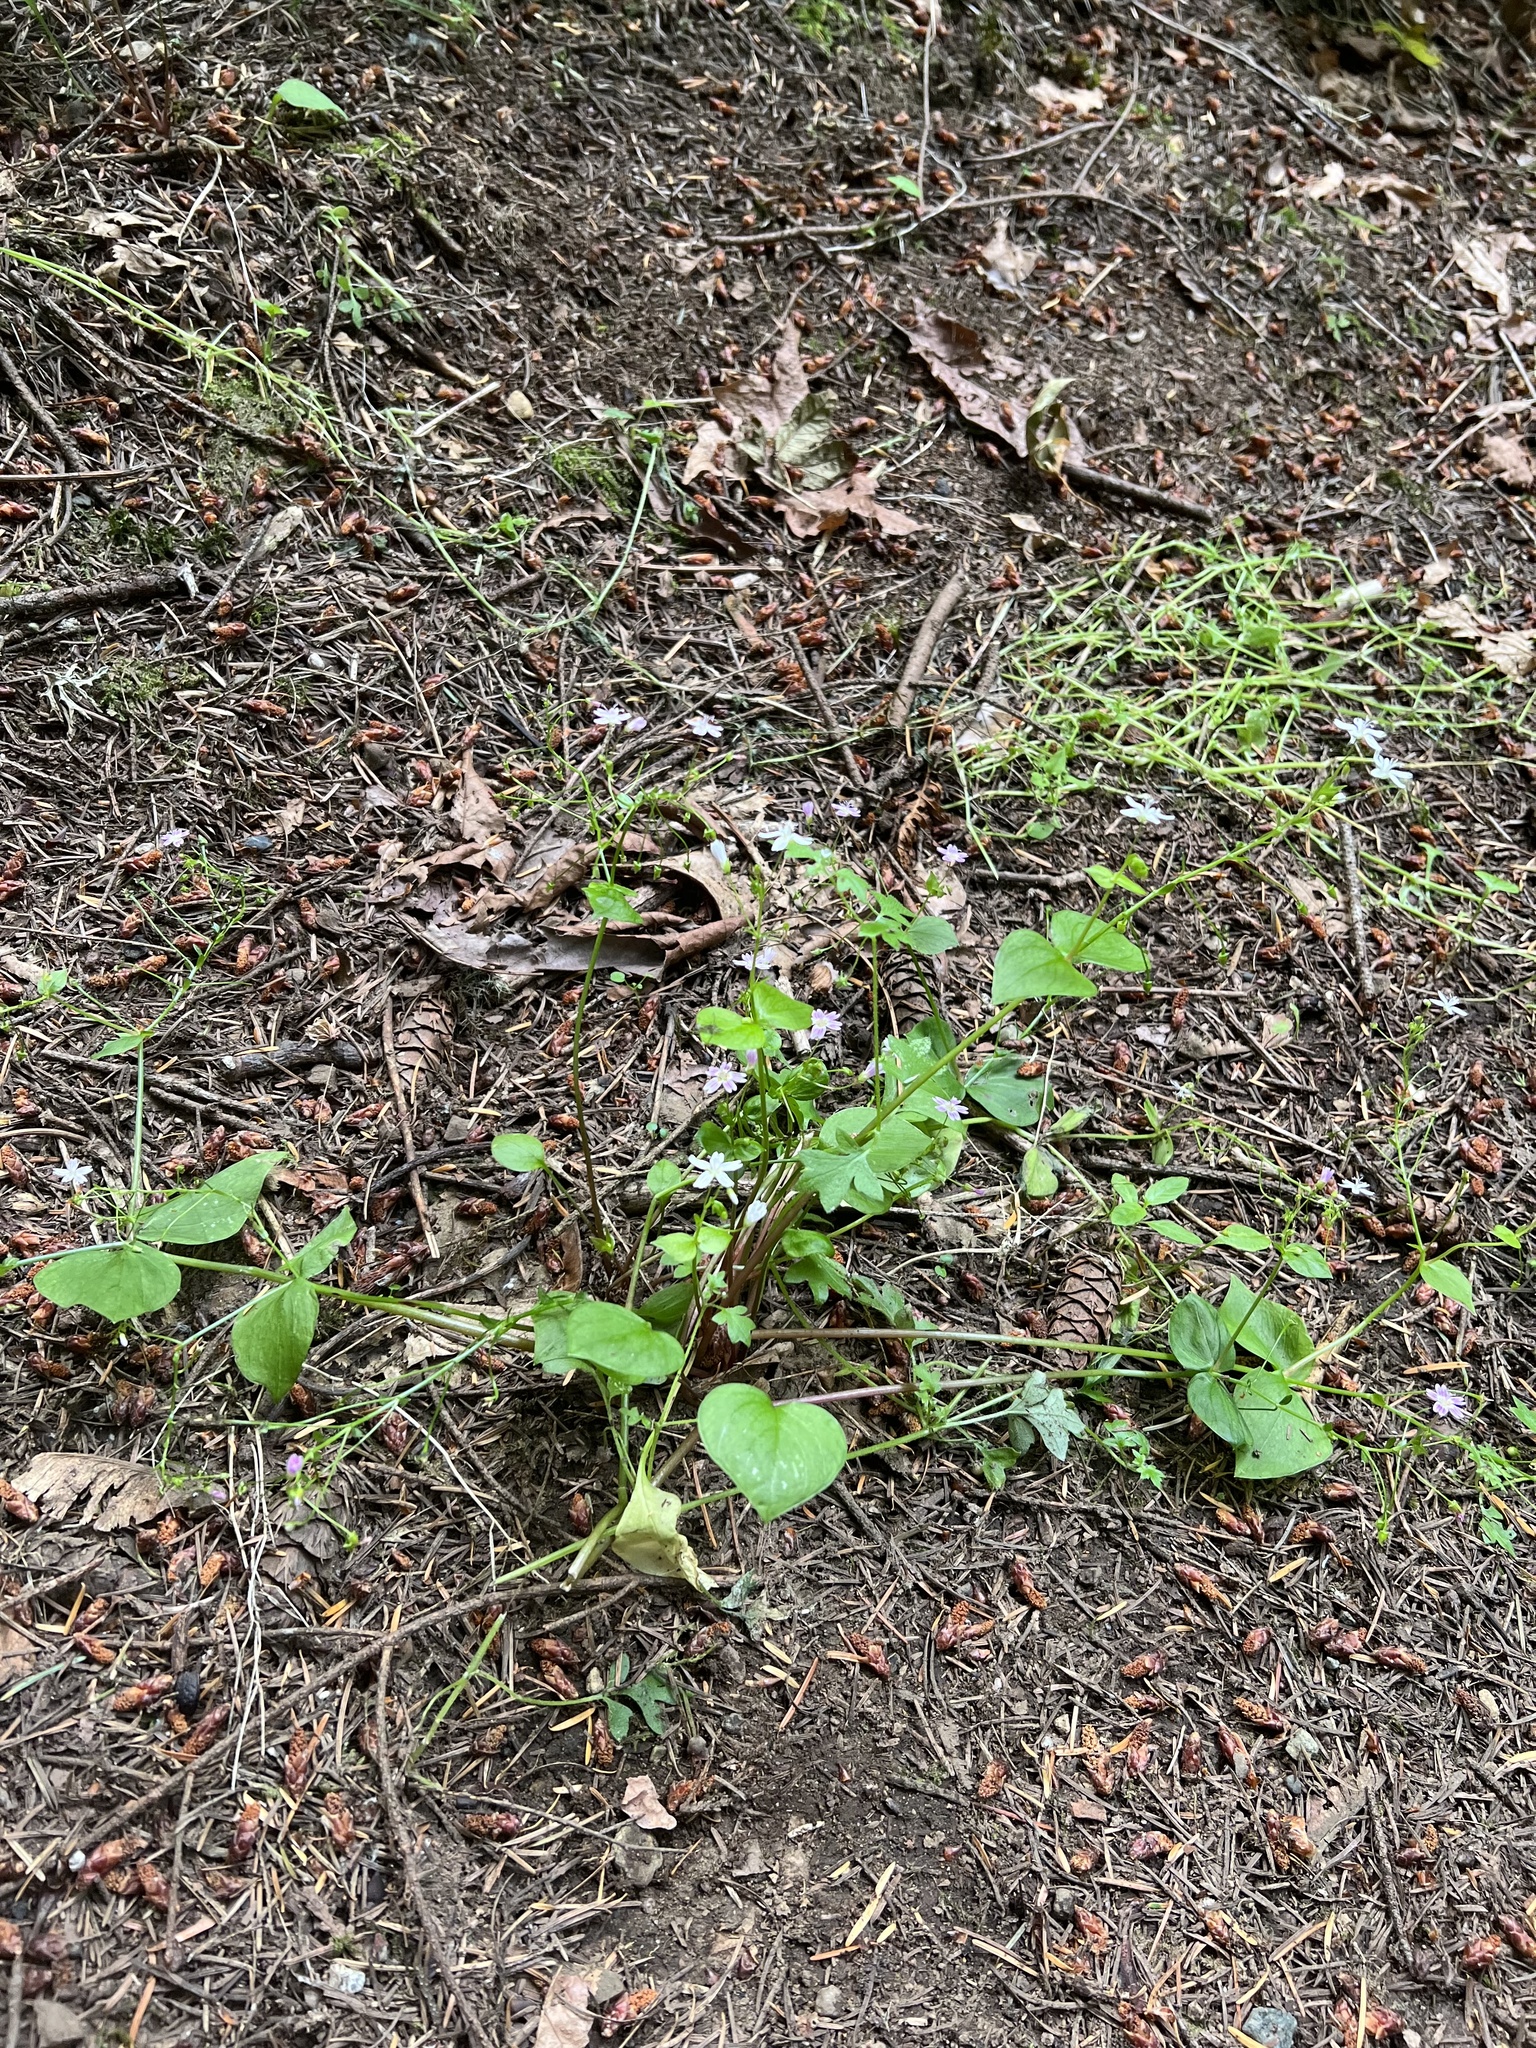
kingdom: Plantae
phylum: Tracheophyta
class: Magnoliopsida
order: Caryophyllales
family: Montiaceae
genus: Claytonia
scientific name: Claytonia sibirica
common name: Pink purslane
